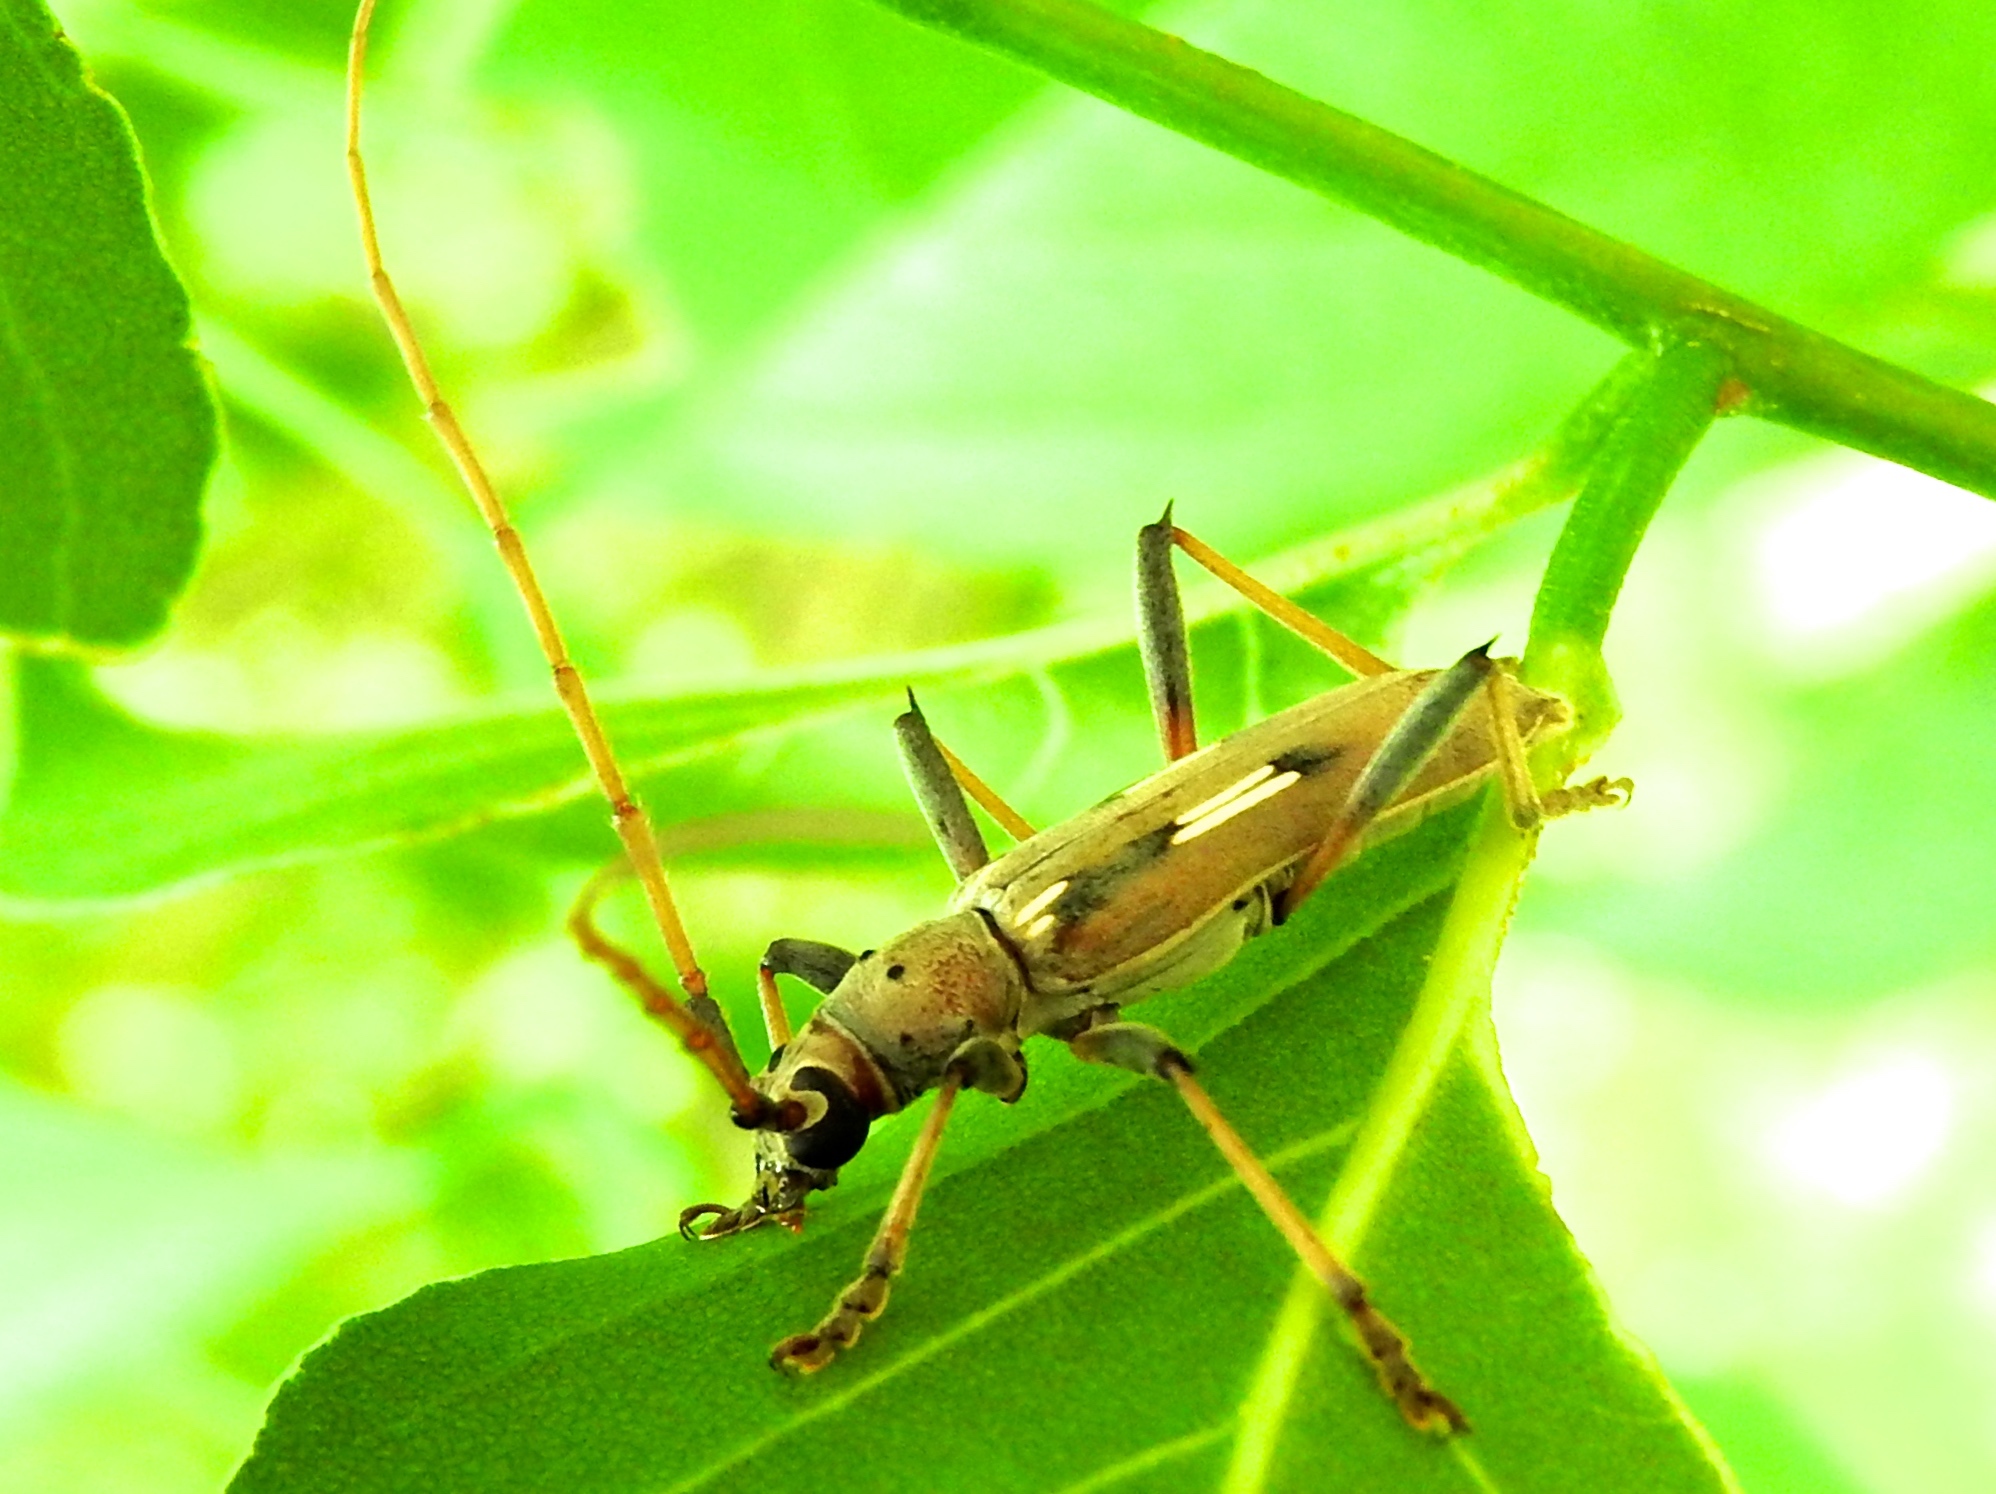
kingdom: Animalia
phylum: Arthropoda
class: Insecta
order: Coleoptera
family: Cerambycidae
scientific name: Cerambycidae
